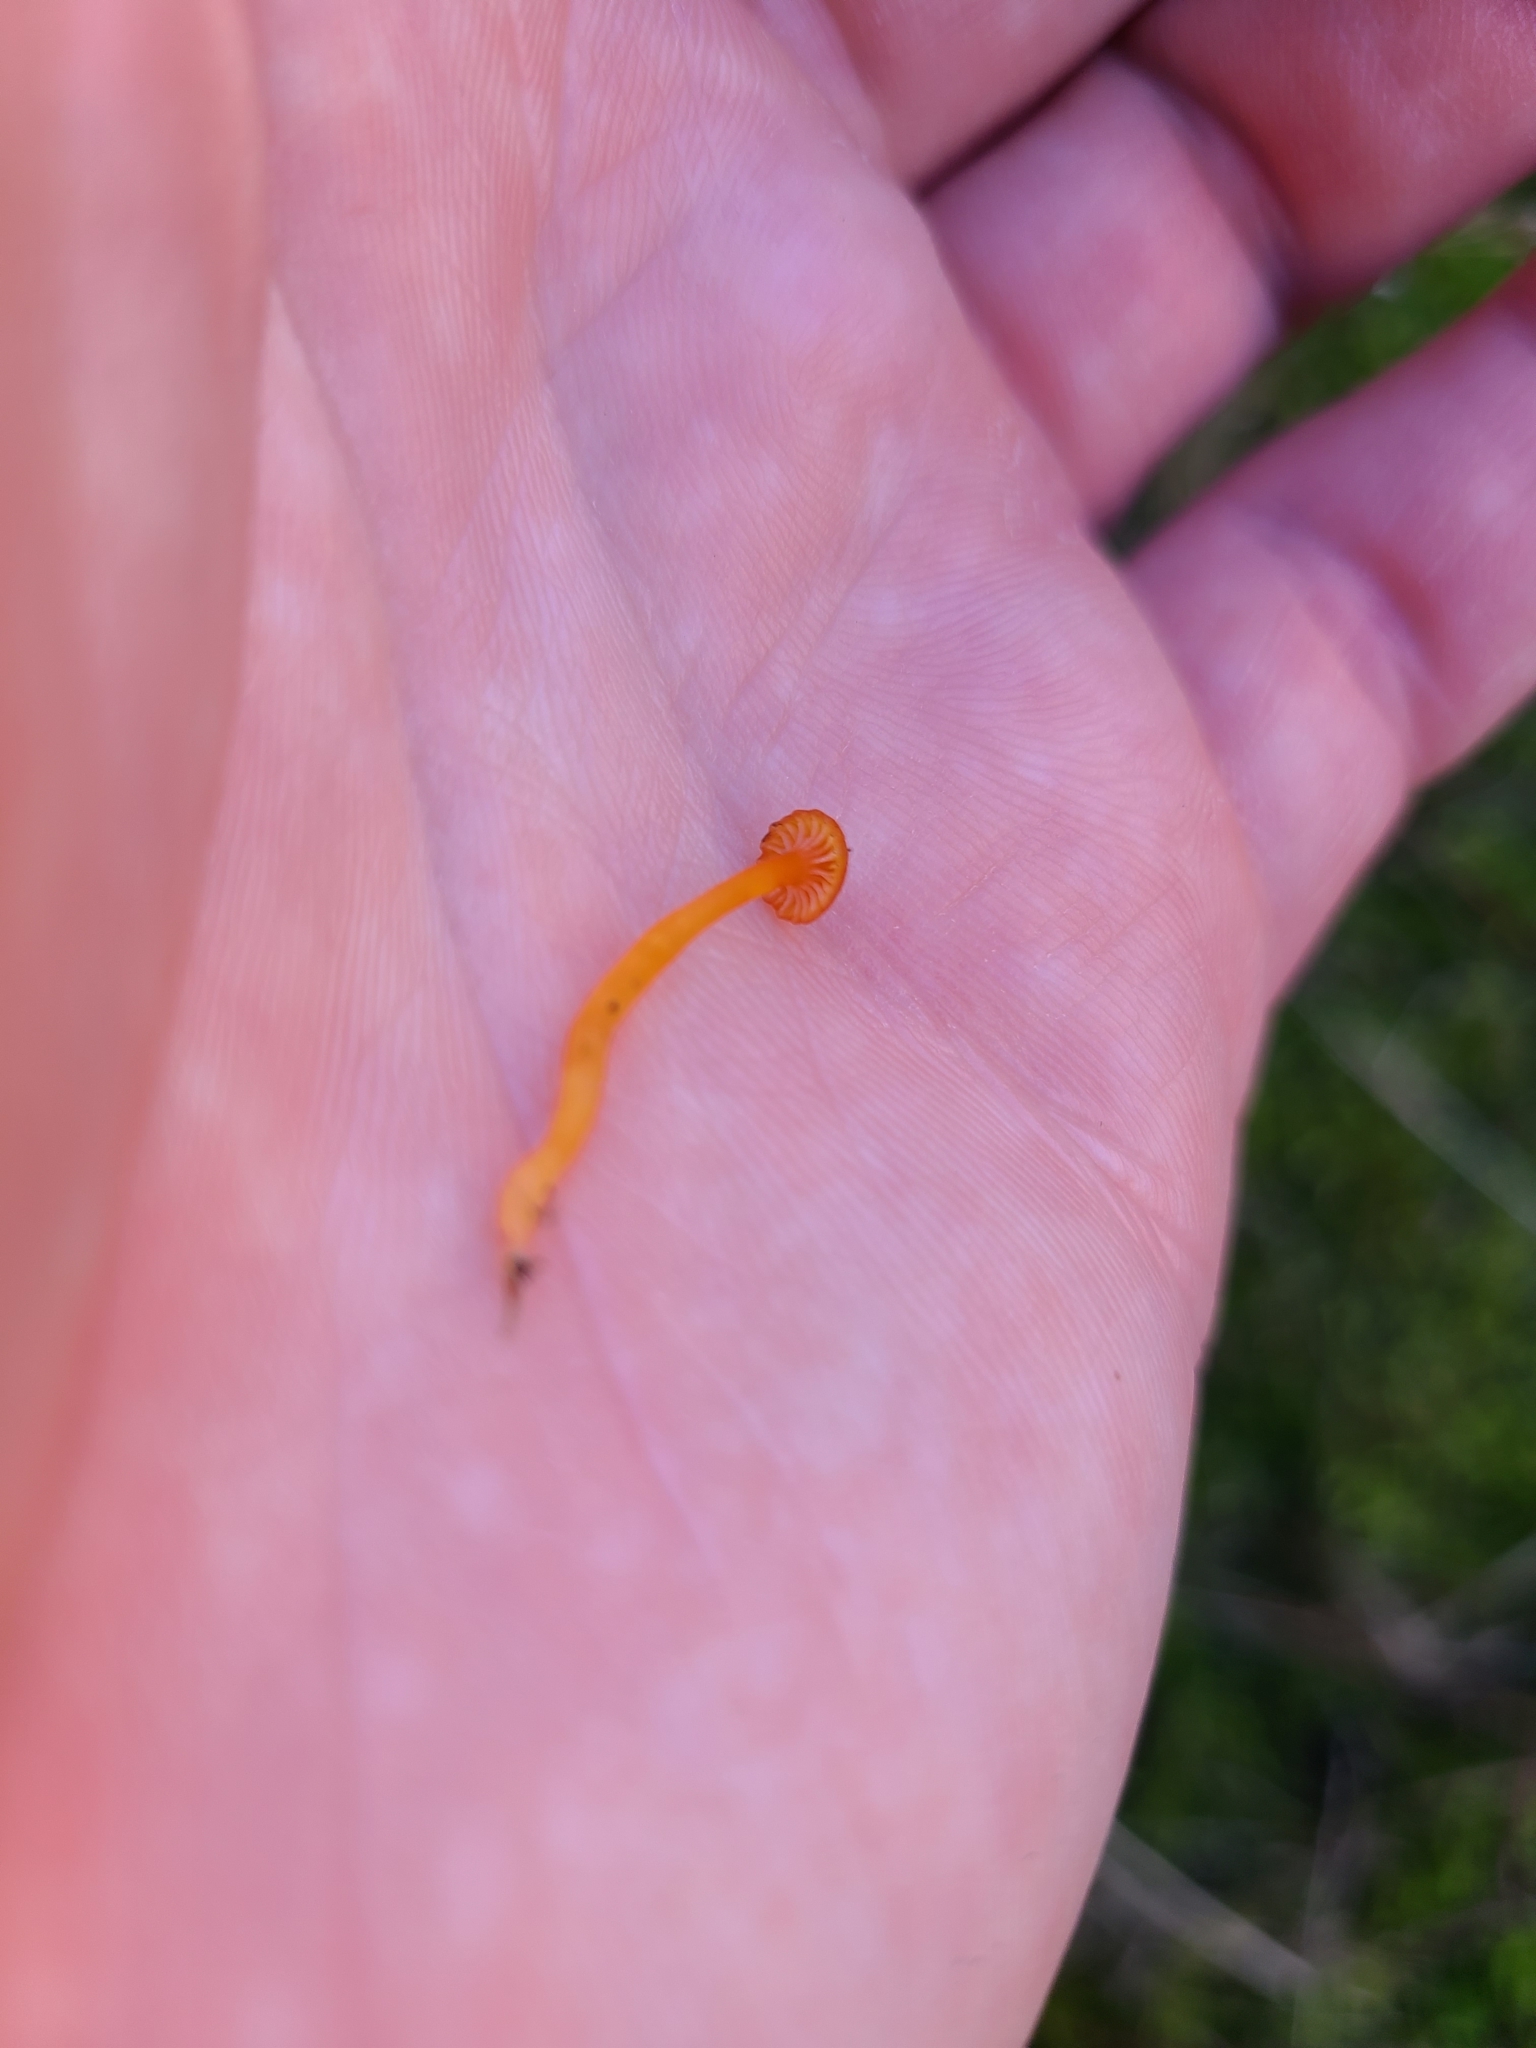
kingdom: Fungi
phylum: Basidiomycota
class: Agaricomycetes
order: Hymenochaetales
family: Rickenellaceae
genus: Rickenella
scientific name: Rickenella fibula
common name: Orange mosscap
